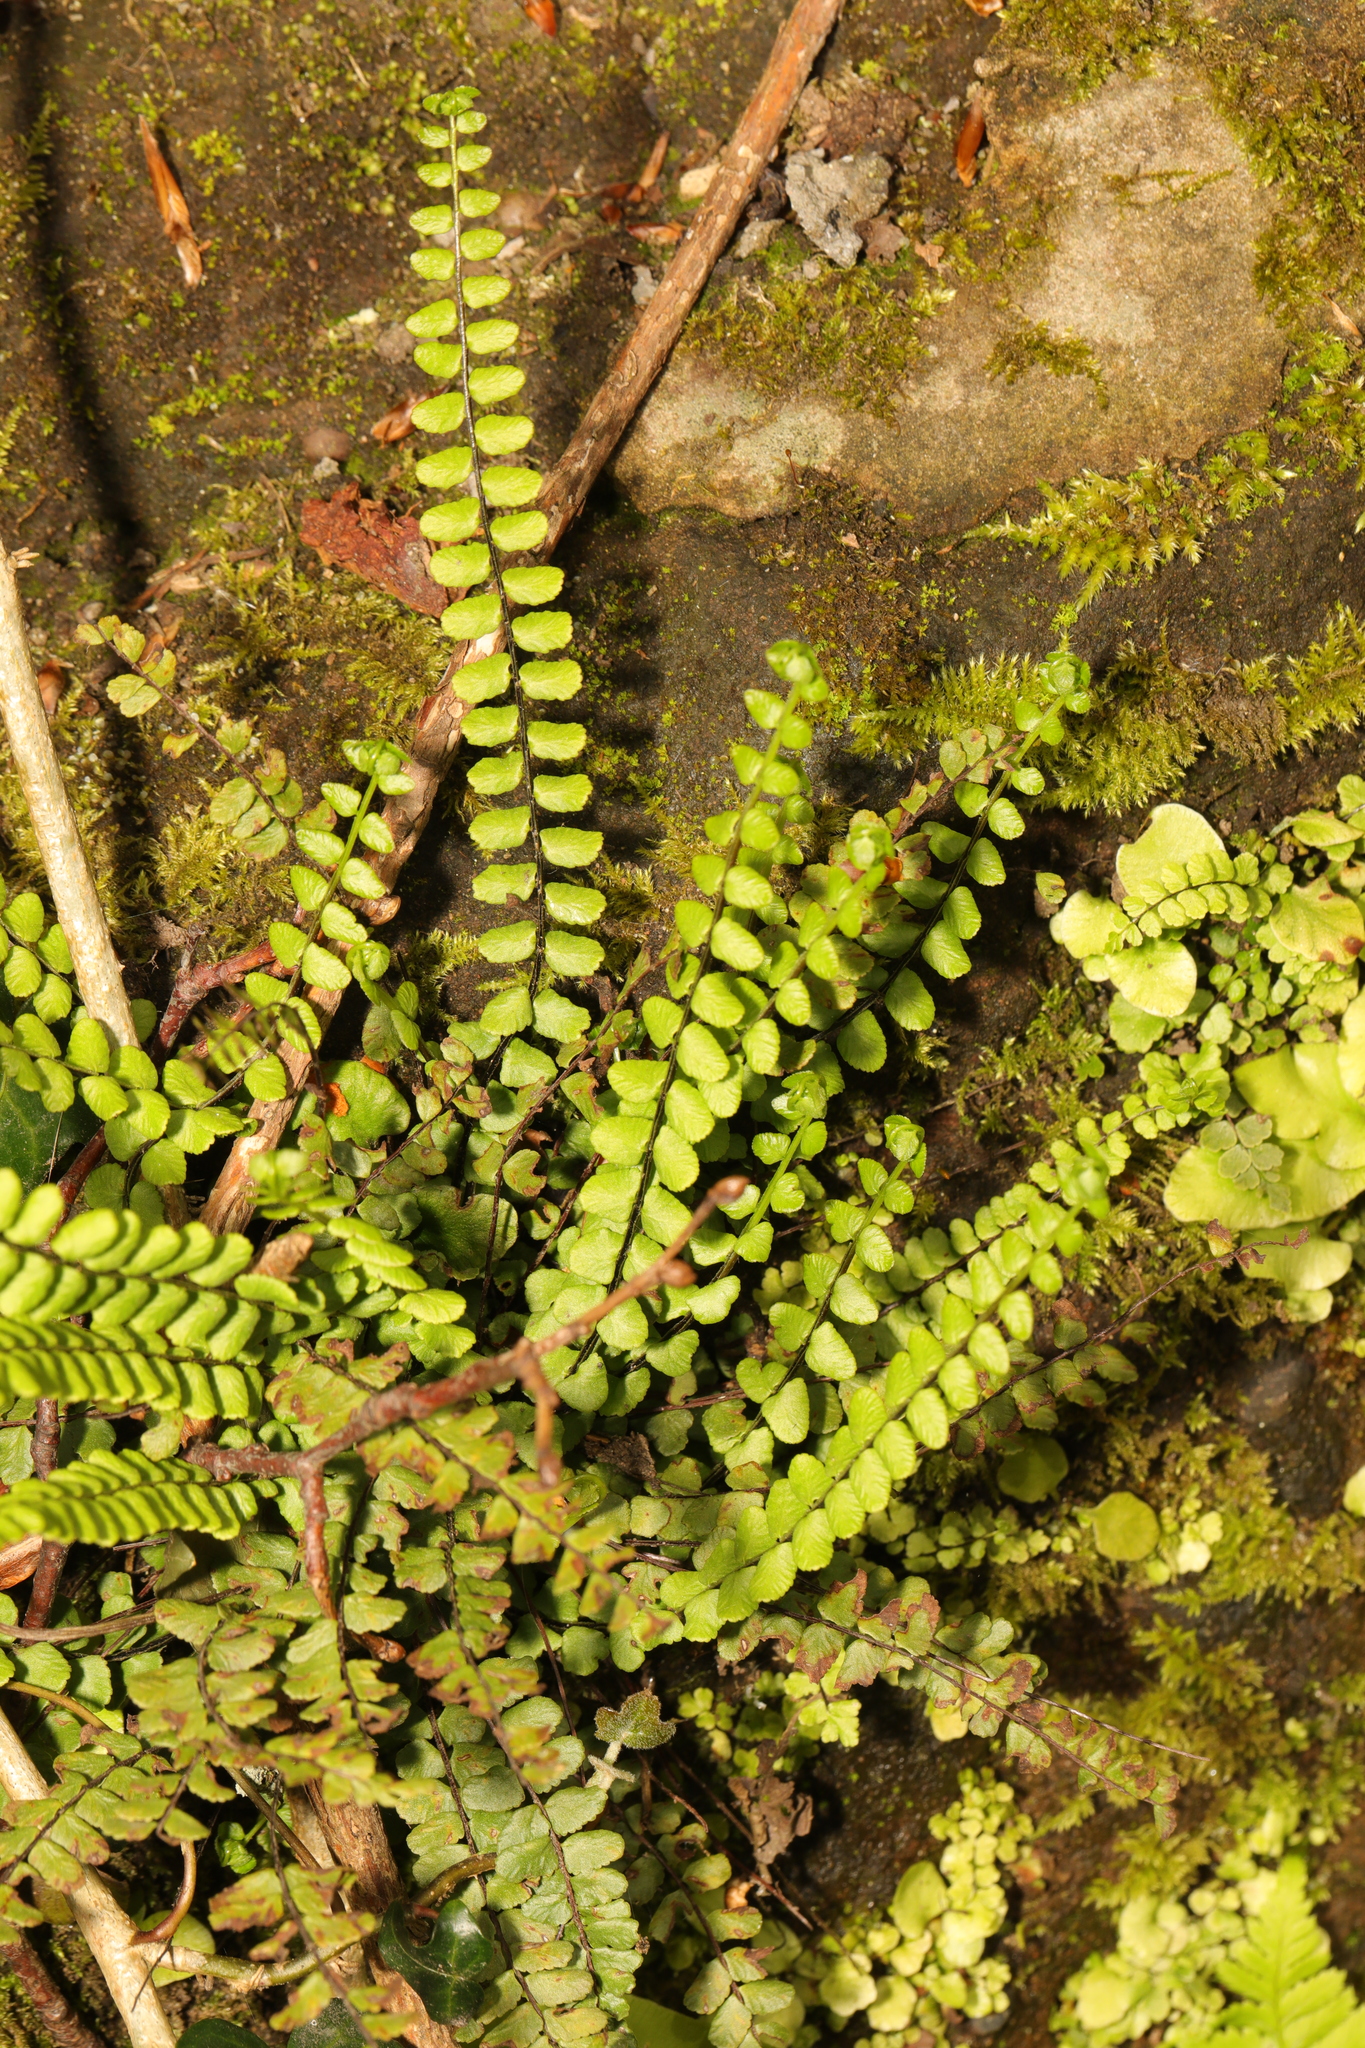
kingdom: Plantae
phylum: Tracheophyta
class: Polypodiopsida
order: Polypodiales
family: Aspleniaceae
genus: Asplenium
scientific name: Asplenium trichomanes
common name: Maidenhair spleenwort
